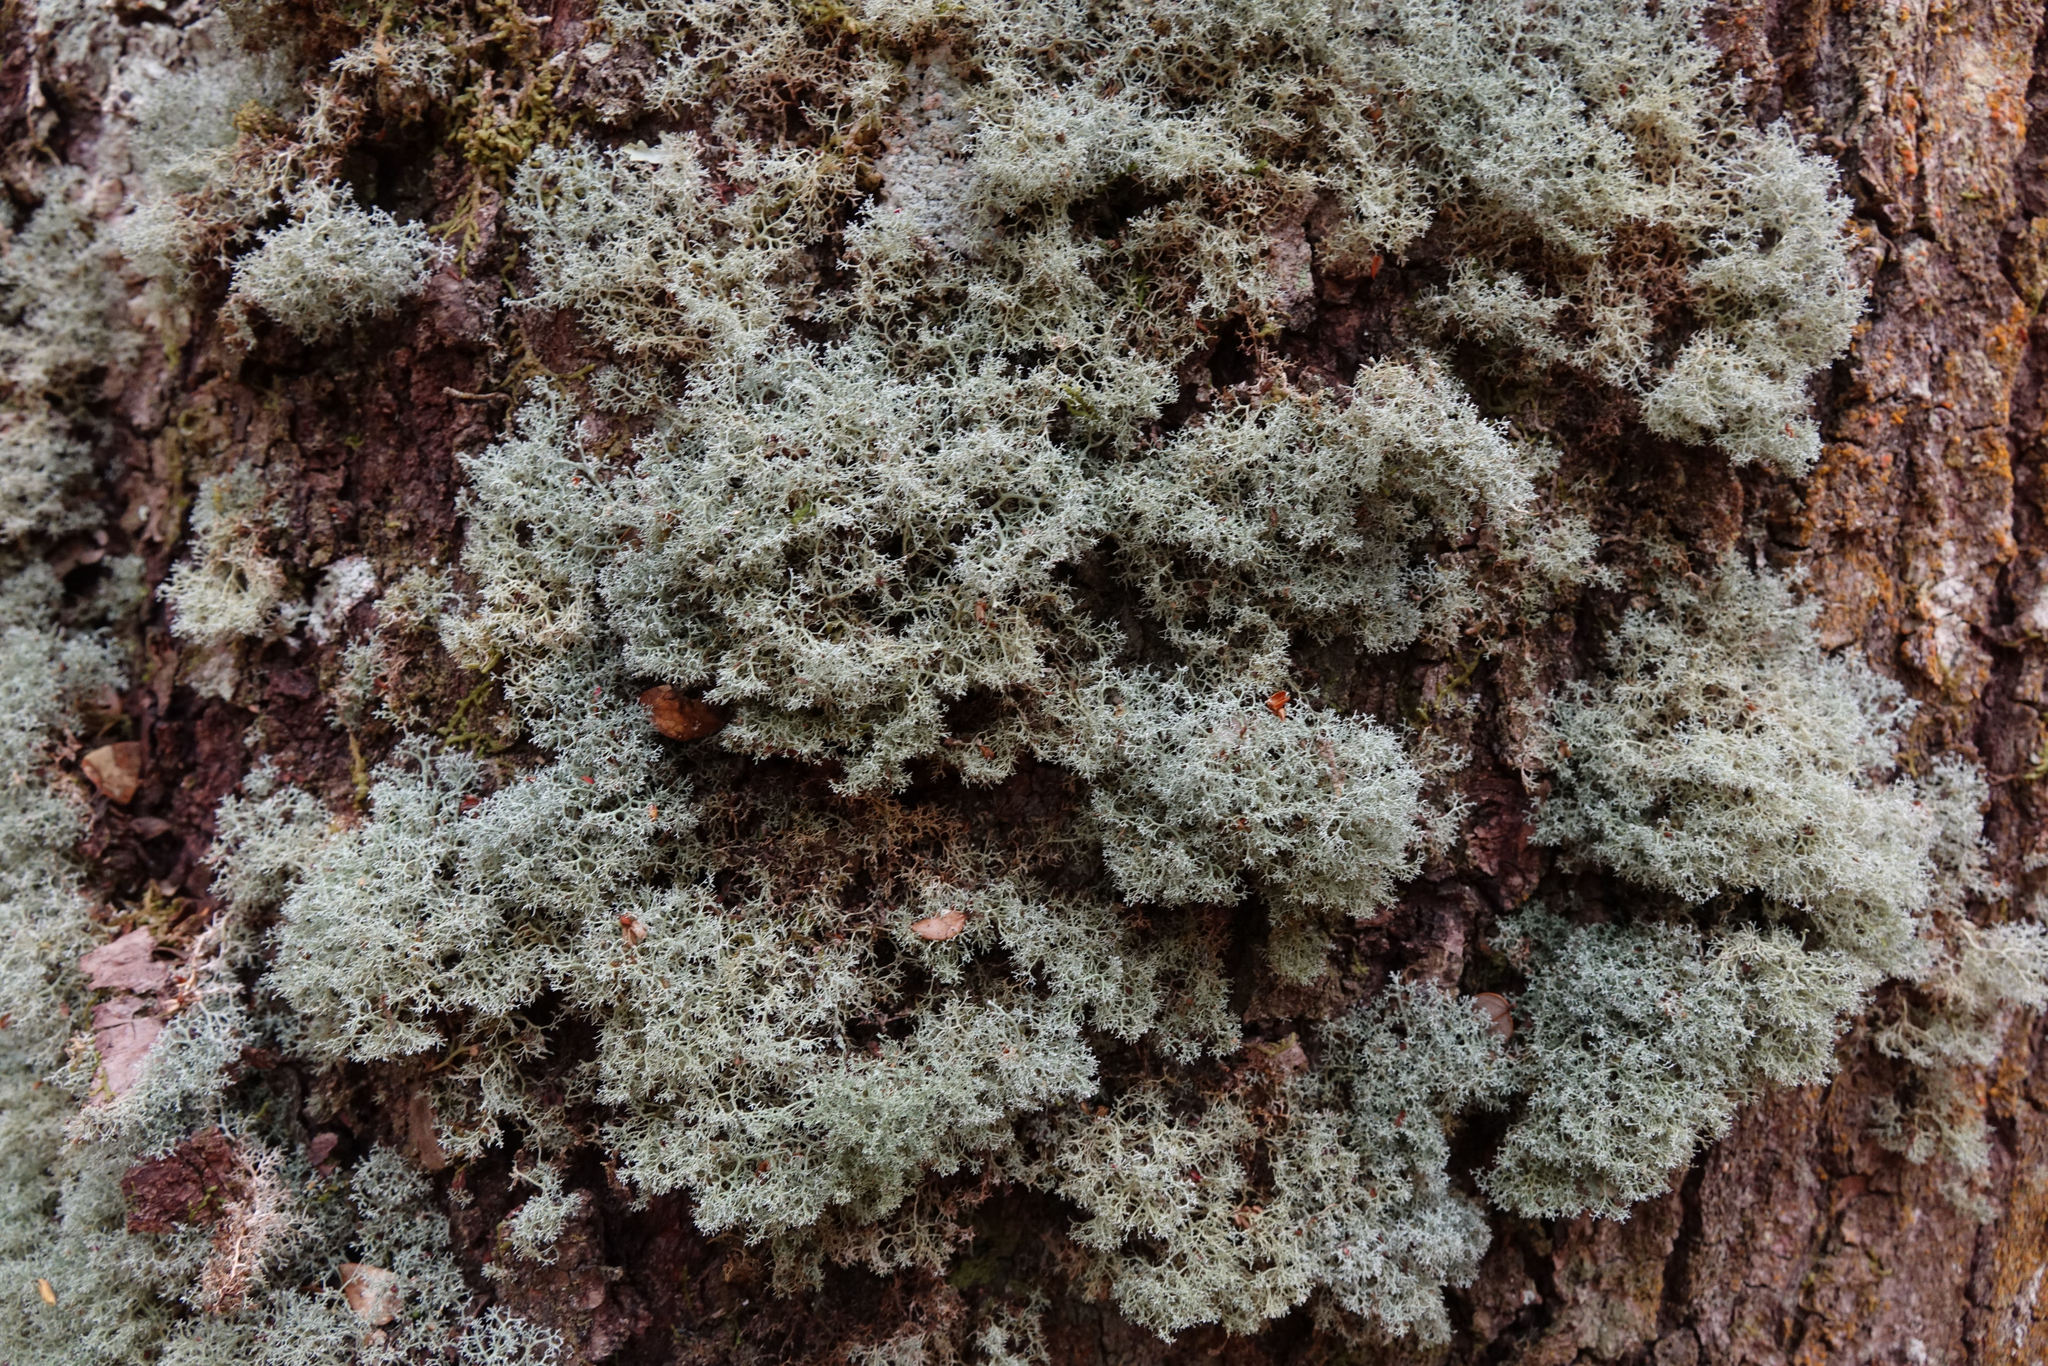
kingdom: Fungi
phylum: Ascomycota
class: Lecanoromycetes
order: Lecanorales
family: Sphaerophoraceae
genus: Leifidium
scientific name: Leifidium tenerum
